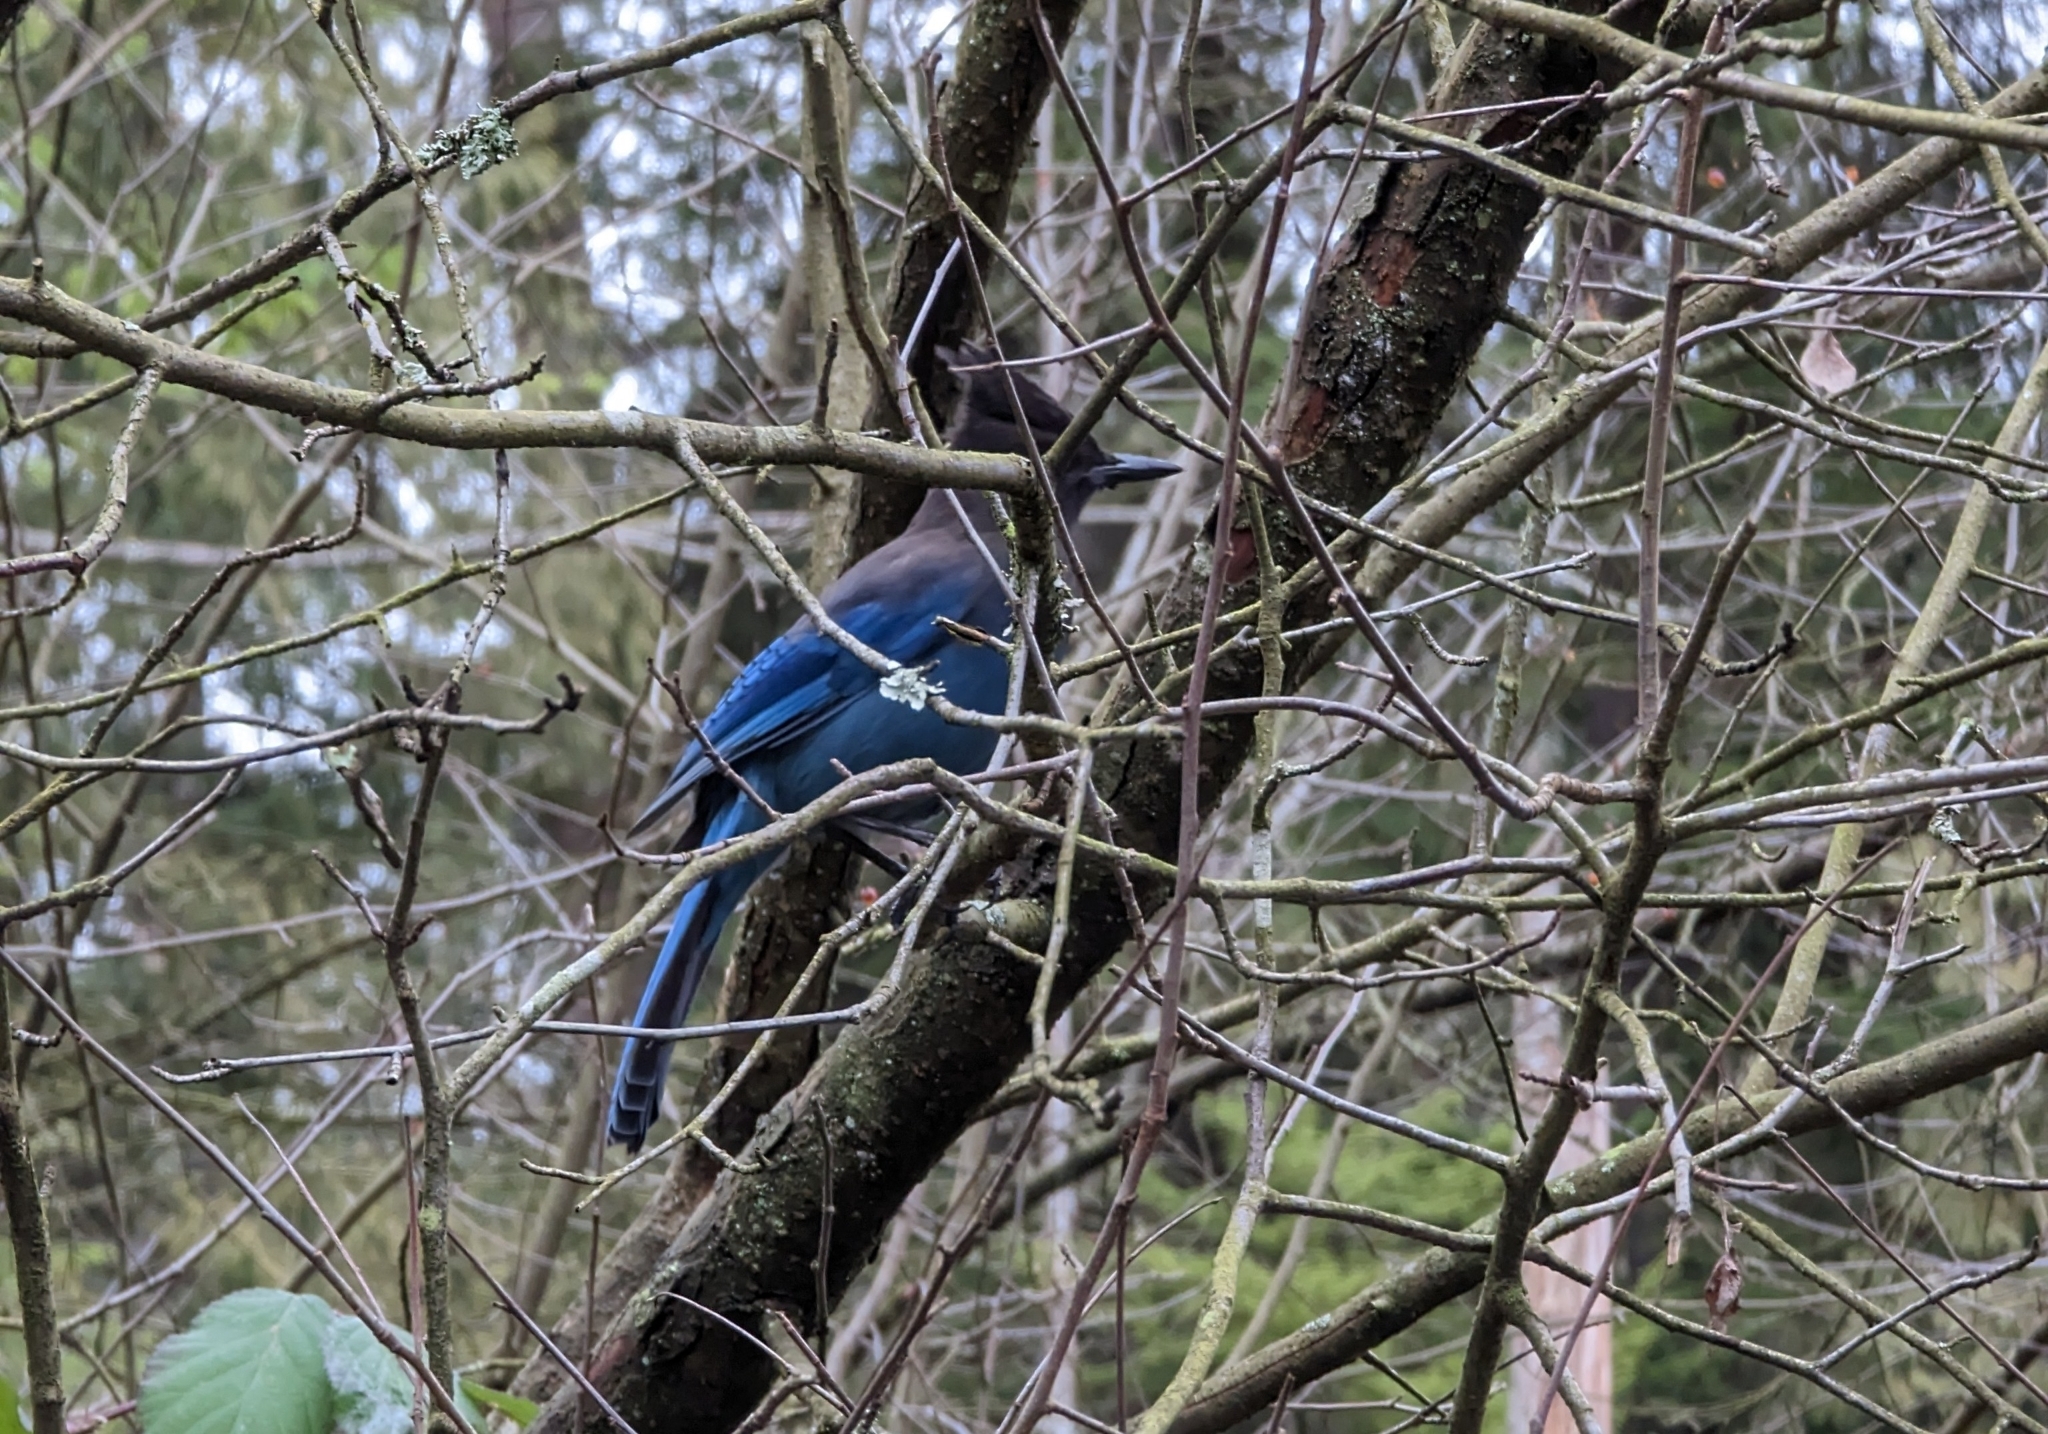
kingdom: Animalia
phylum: Chordata
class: Aves
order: Passeriformes
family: Corvidae
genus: Cyanocitta
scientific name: Cyanocitta stelleri
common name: Steller's jay
